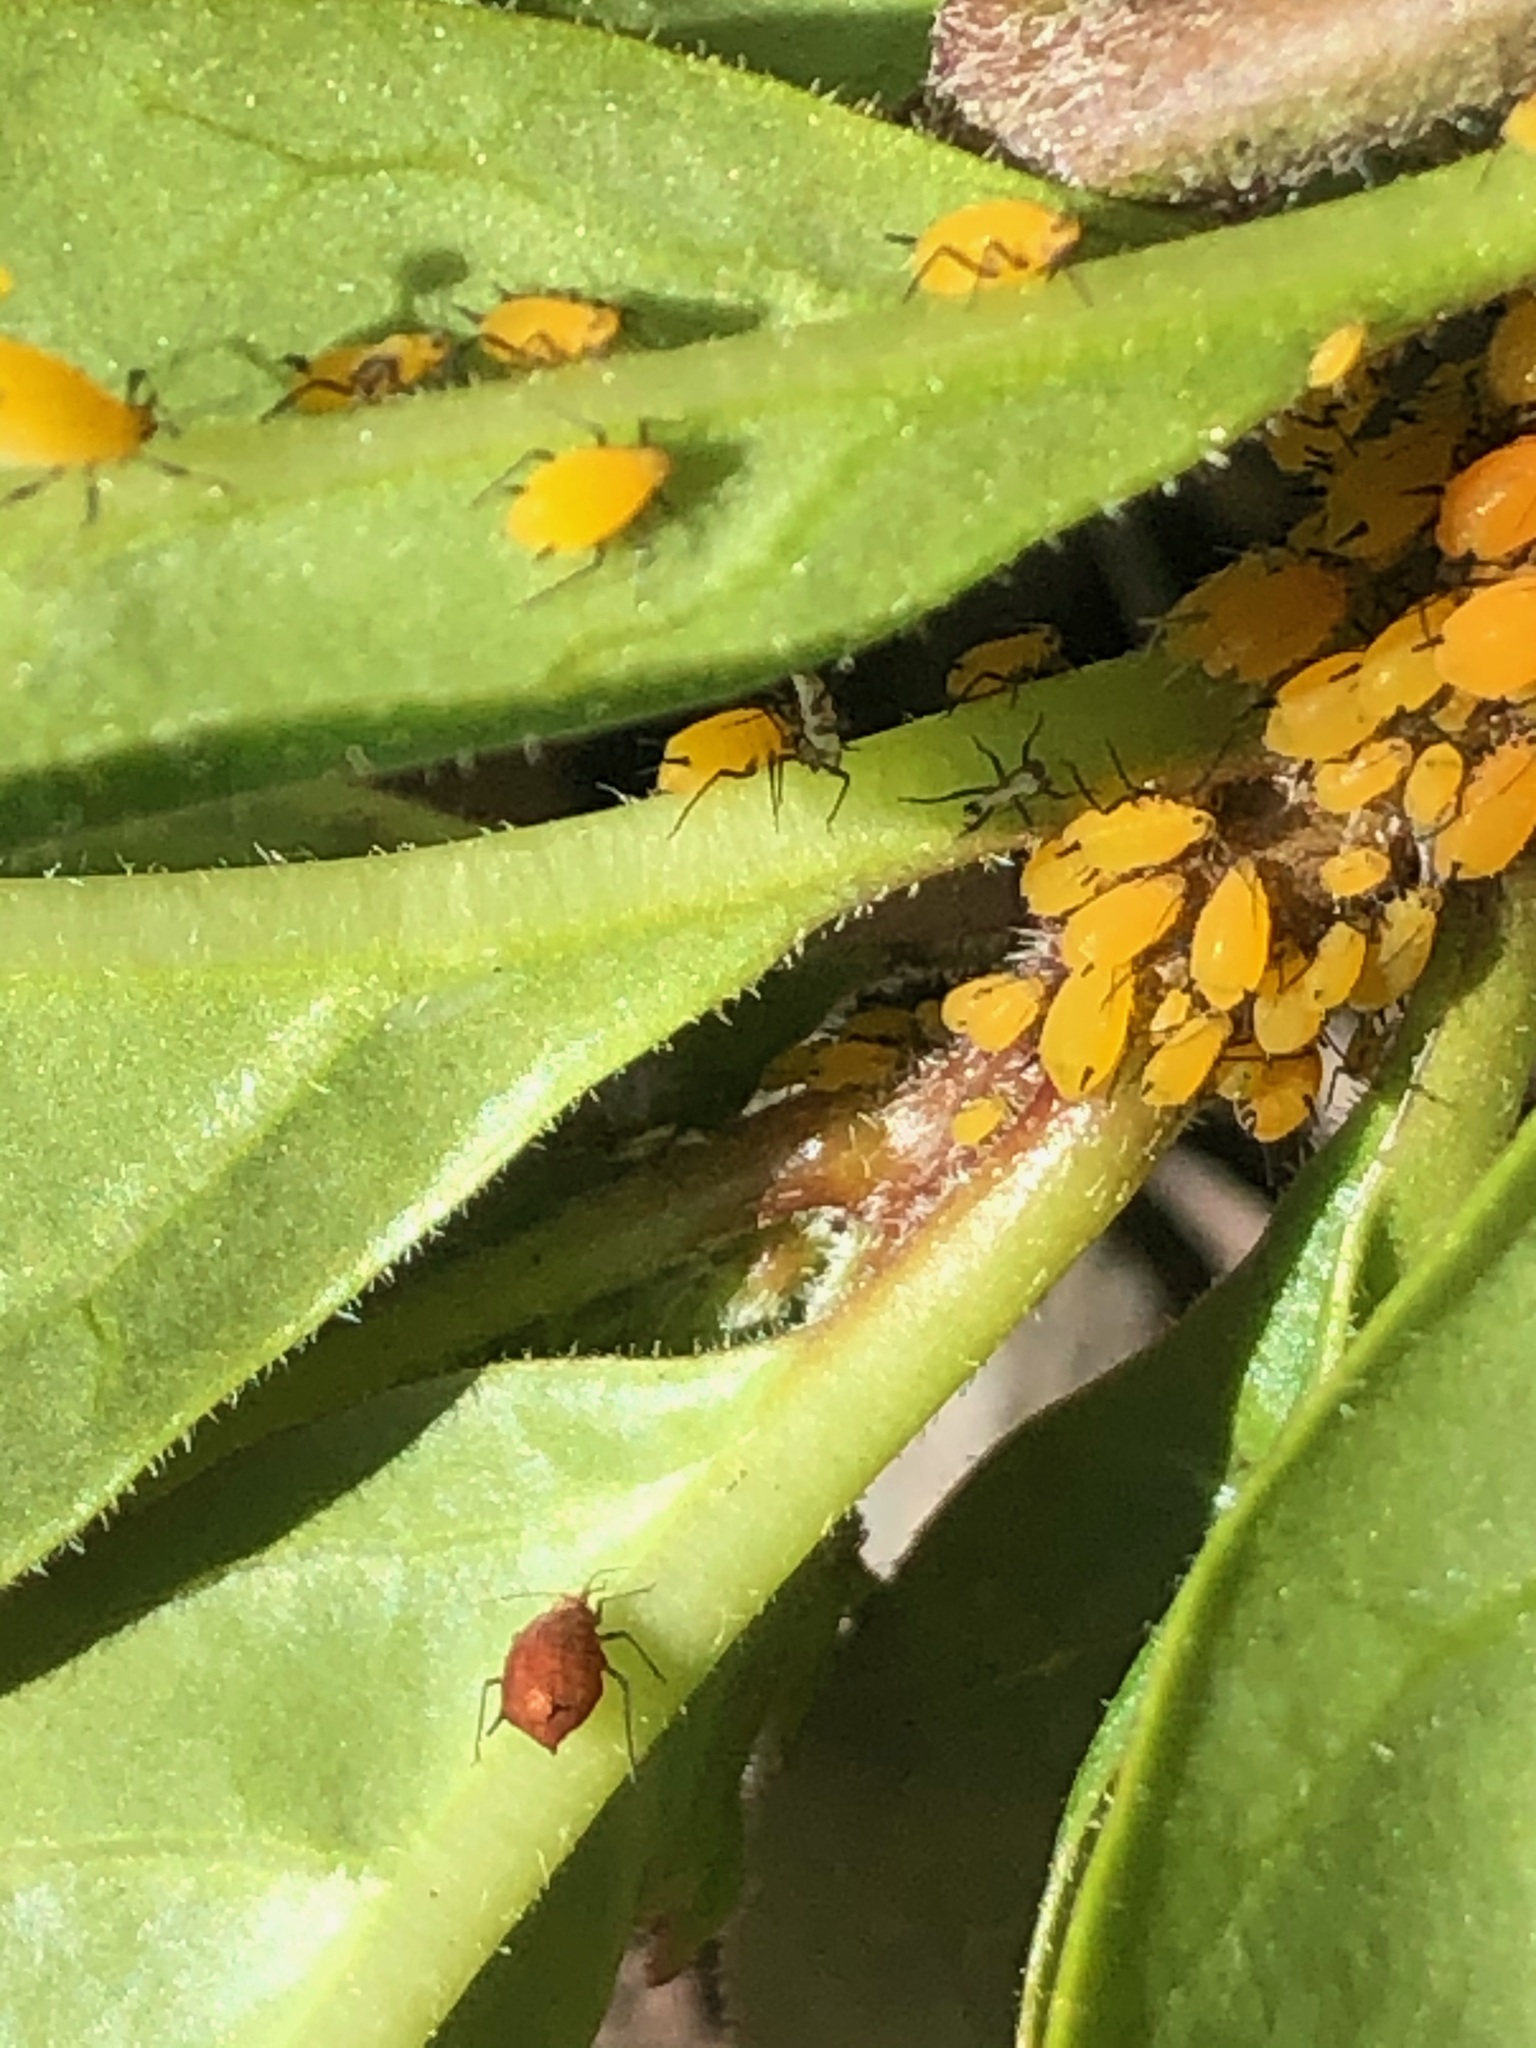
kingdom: Animalia
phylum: Arthropoda
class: Insecta
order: Hemiptera
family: Aphididae
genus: Aphis
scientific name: Aphis nerii
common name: Oleander aphid
